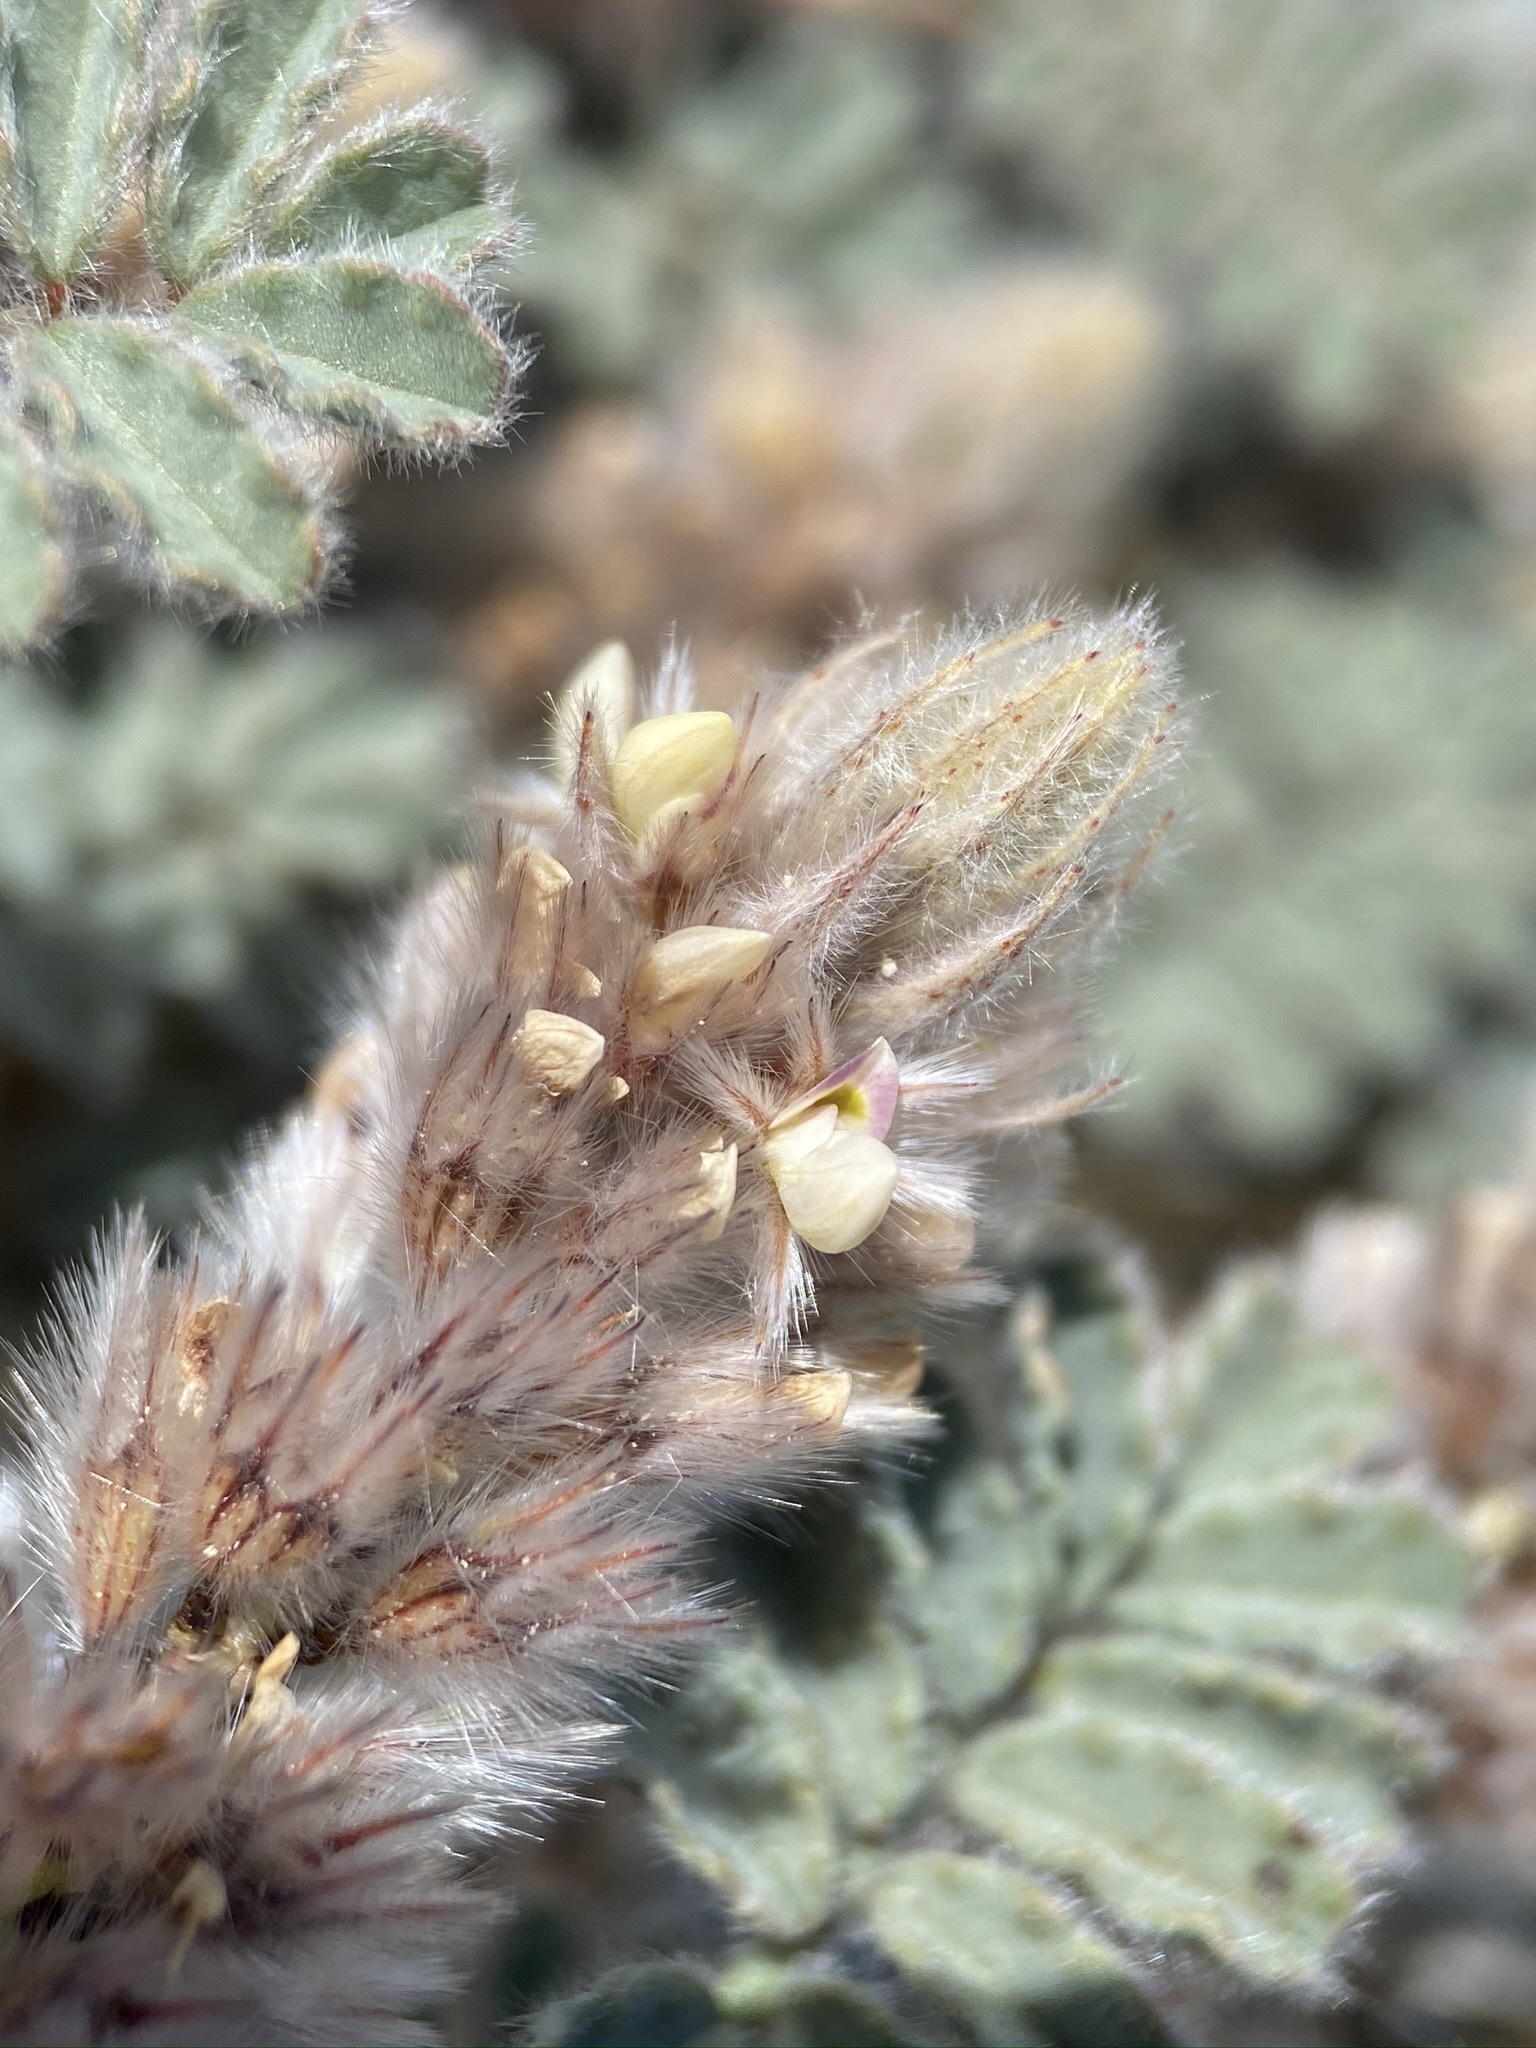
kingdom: Plantae
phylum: Tracheophyta
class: Magnoliopsida
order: Fabales
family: Fabaceae
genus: Dalea
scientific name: Dalea mollissima
